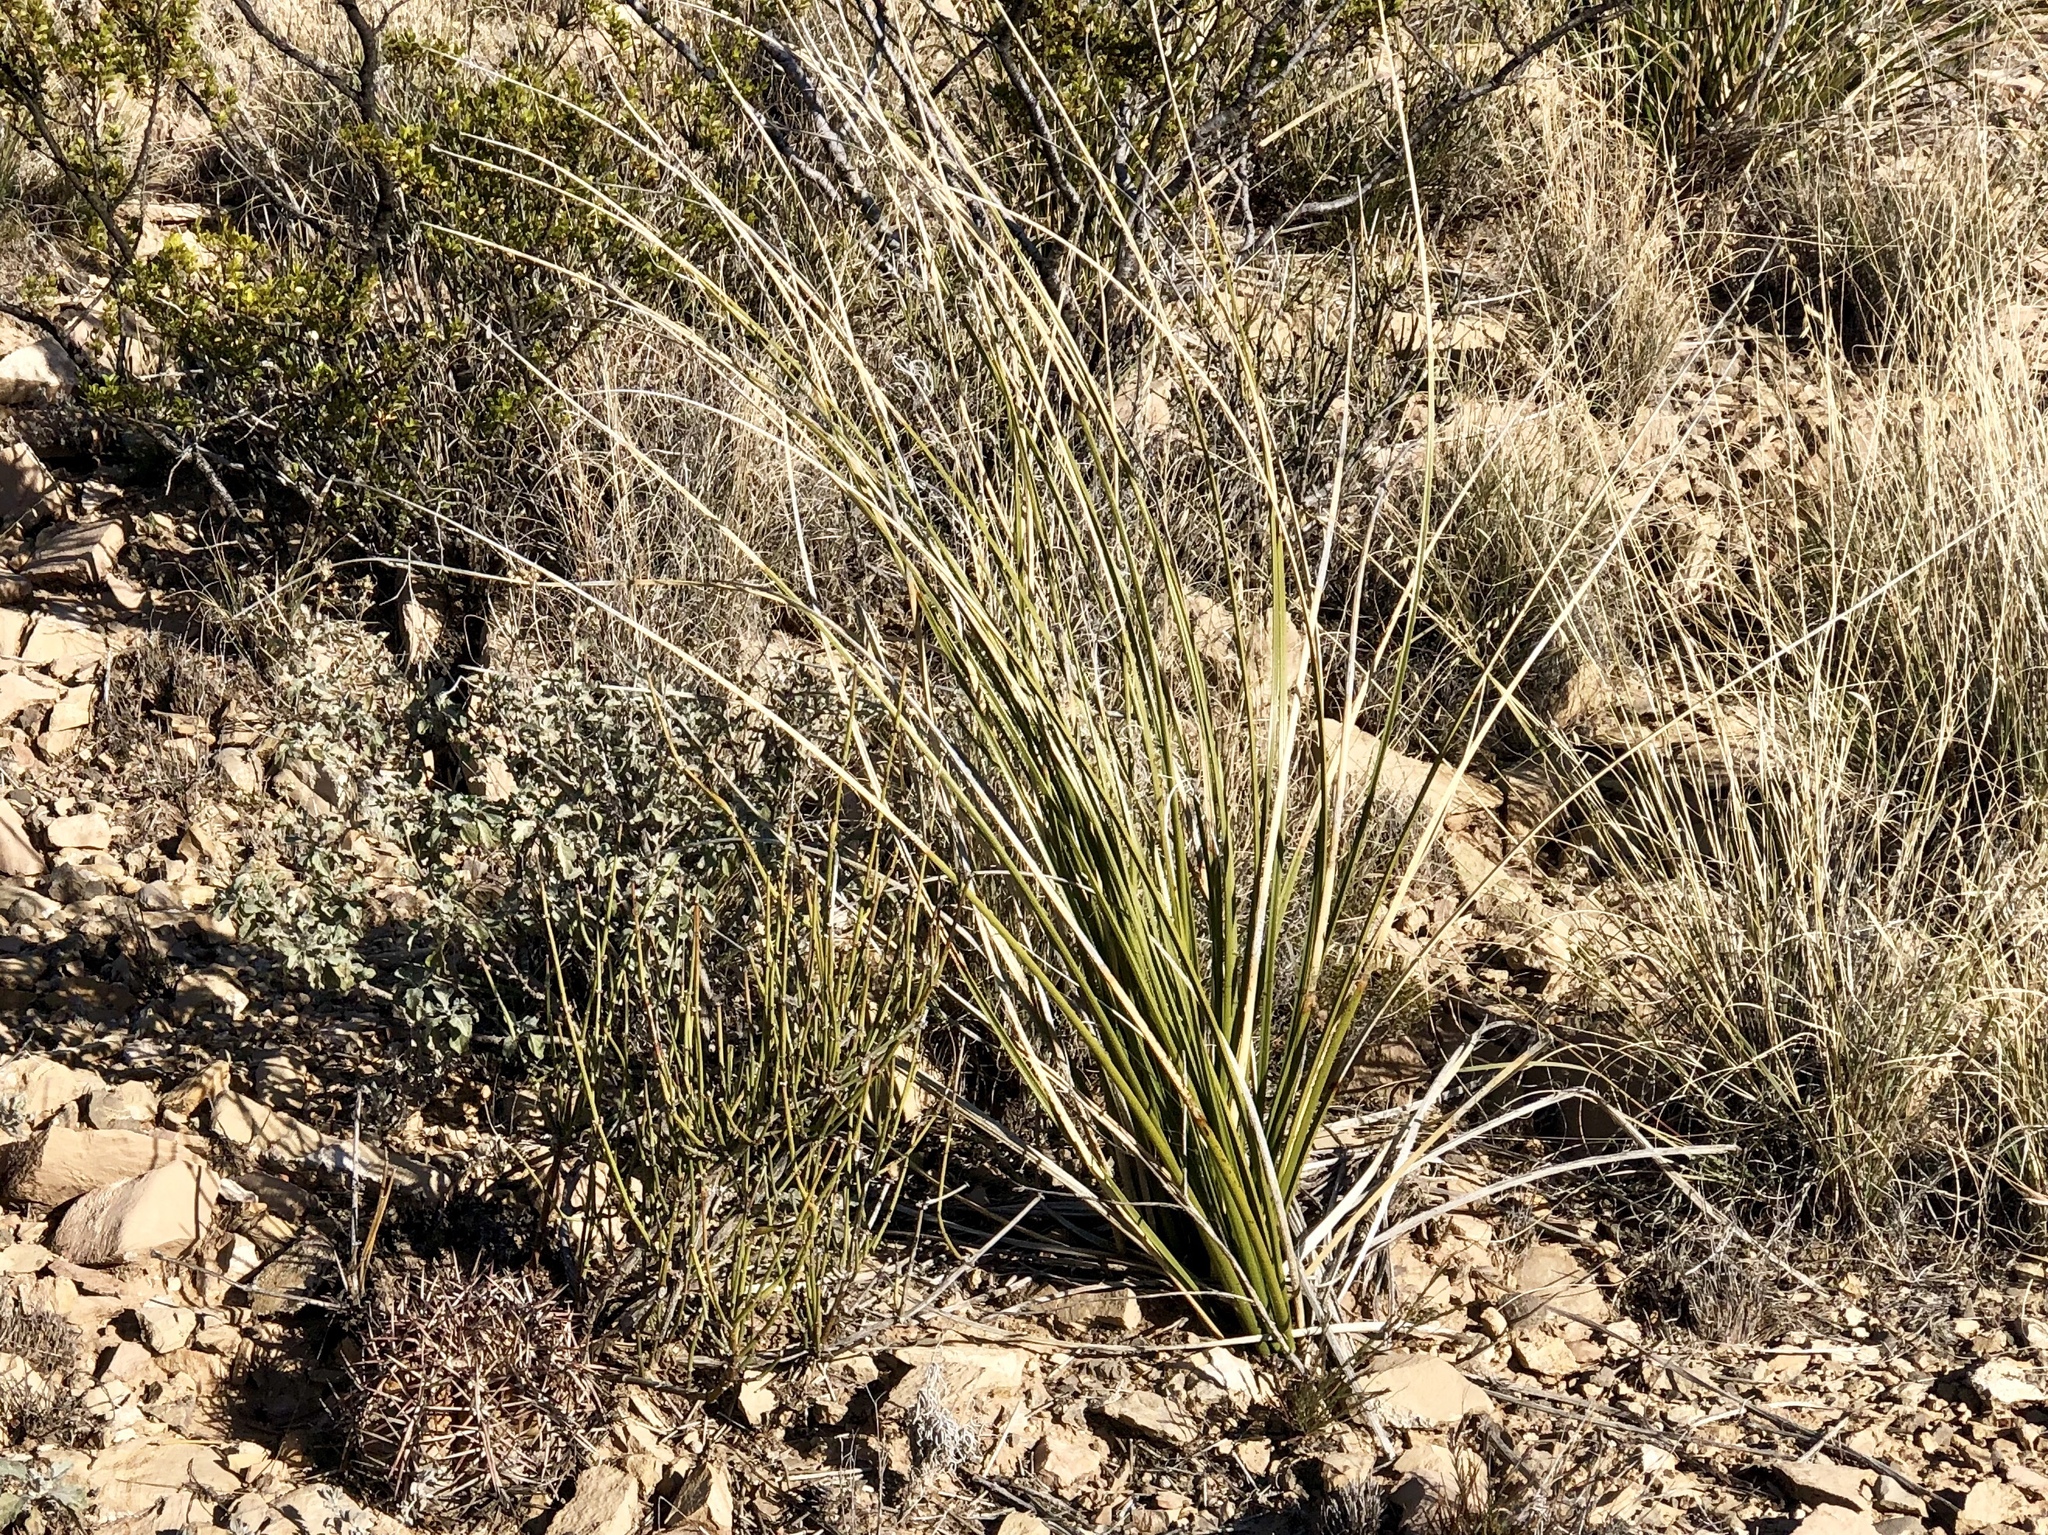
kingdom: Plantae
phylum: Tracheophyta
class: Liliopsida
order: Asparagales
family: Asparagaceae
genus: Nolina
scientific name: Nolina texana
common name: Texas sacahuiste
